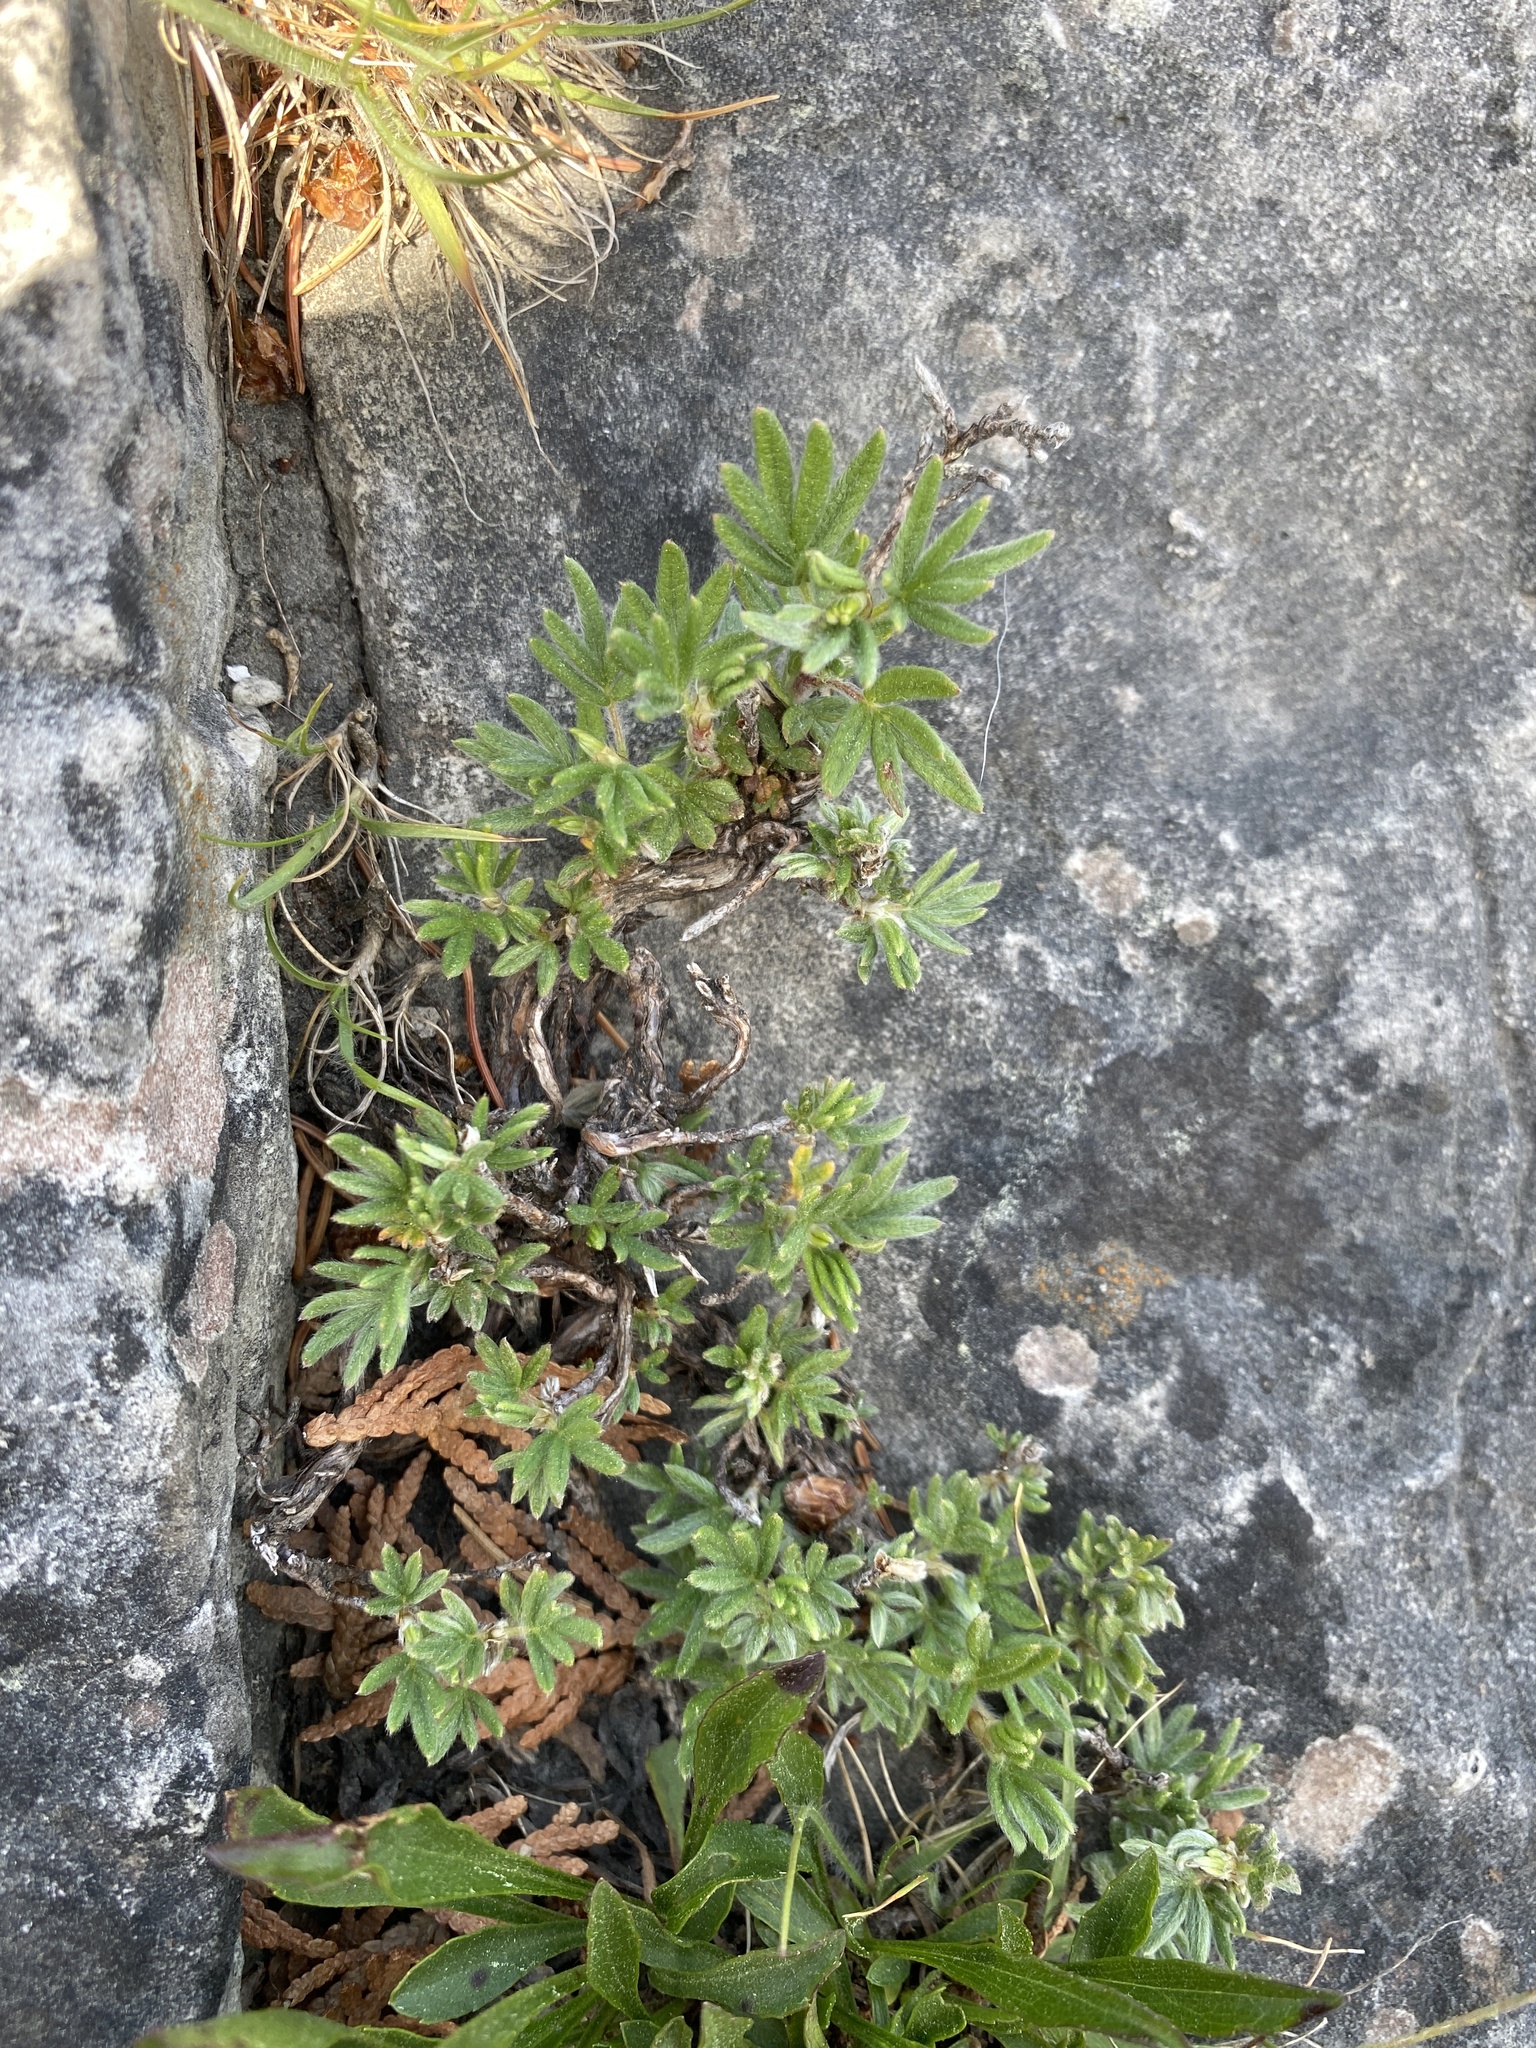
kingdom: Plantae
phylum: Tracheophyta
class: Magnoliopsida
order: Rosales
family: Rosaceae
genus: Dasiphora
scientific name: Dasiphora fruticosa
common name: Shrubby cinquefoil
